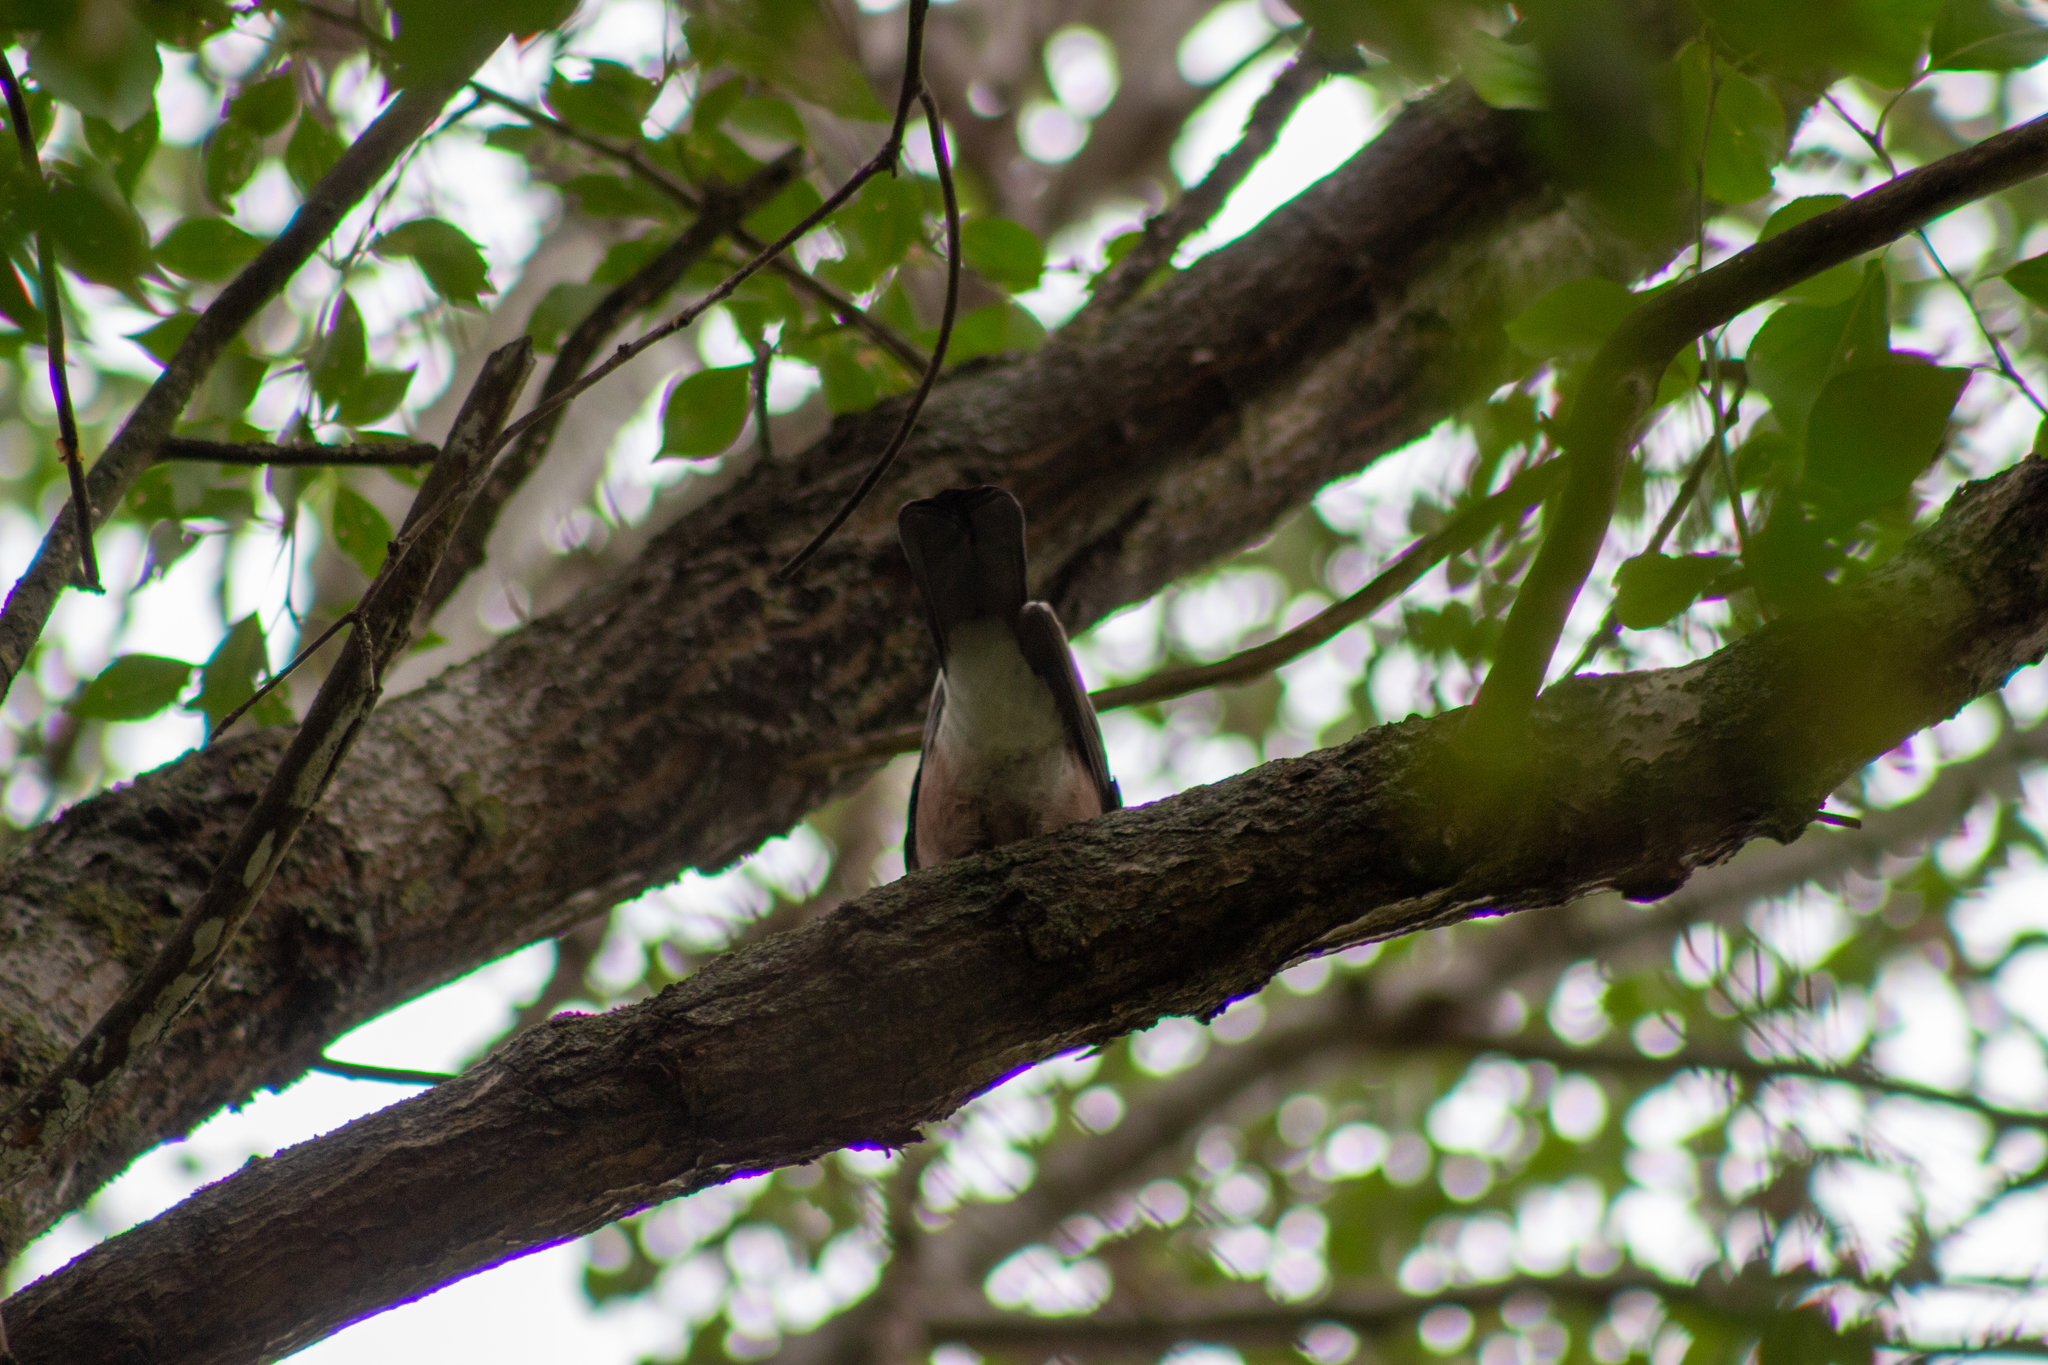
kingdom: Animalia
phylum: Chordata
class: Aves
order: Passeriformes
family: Corvidae
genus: Garrulus
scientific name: Garrulus glandarius
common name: Eurasian jay
